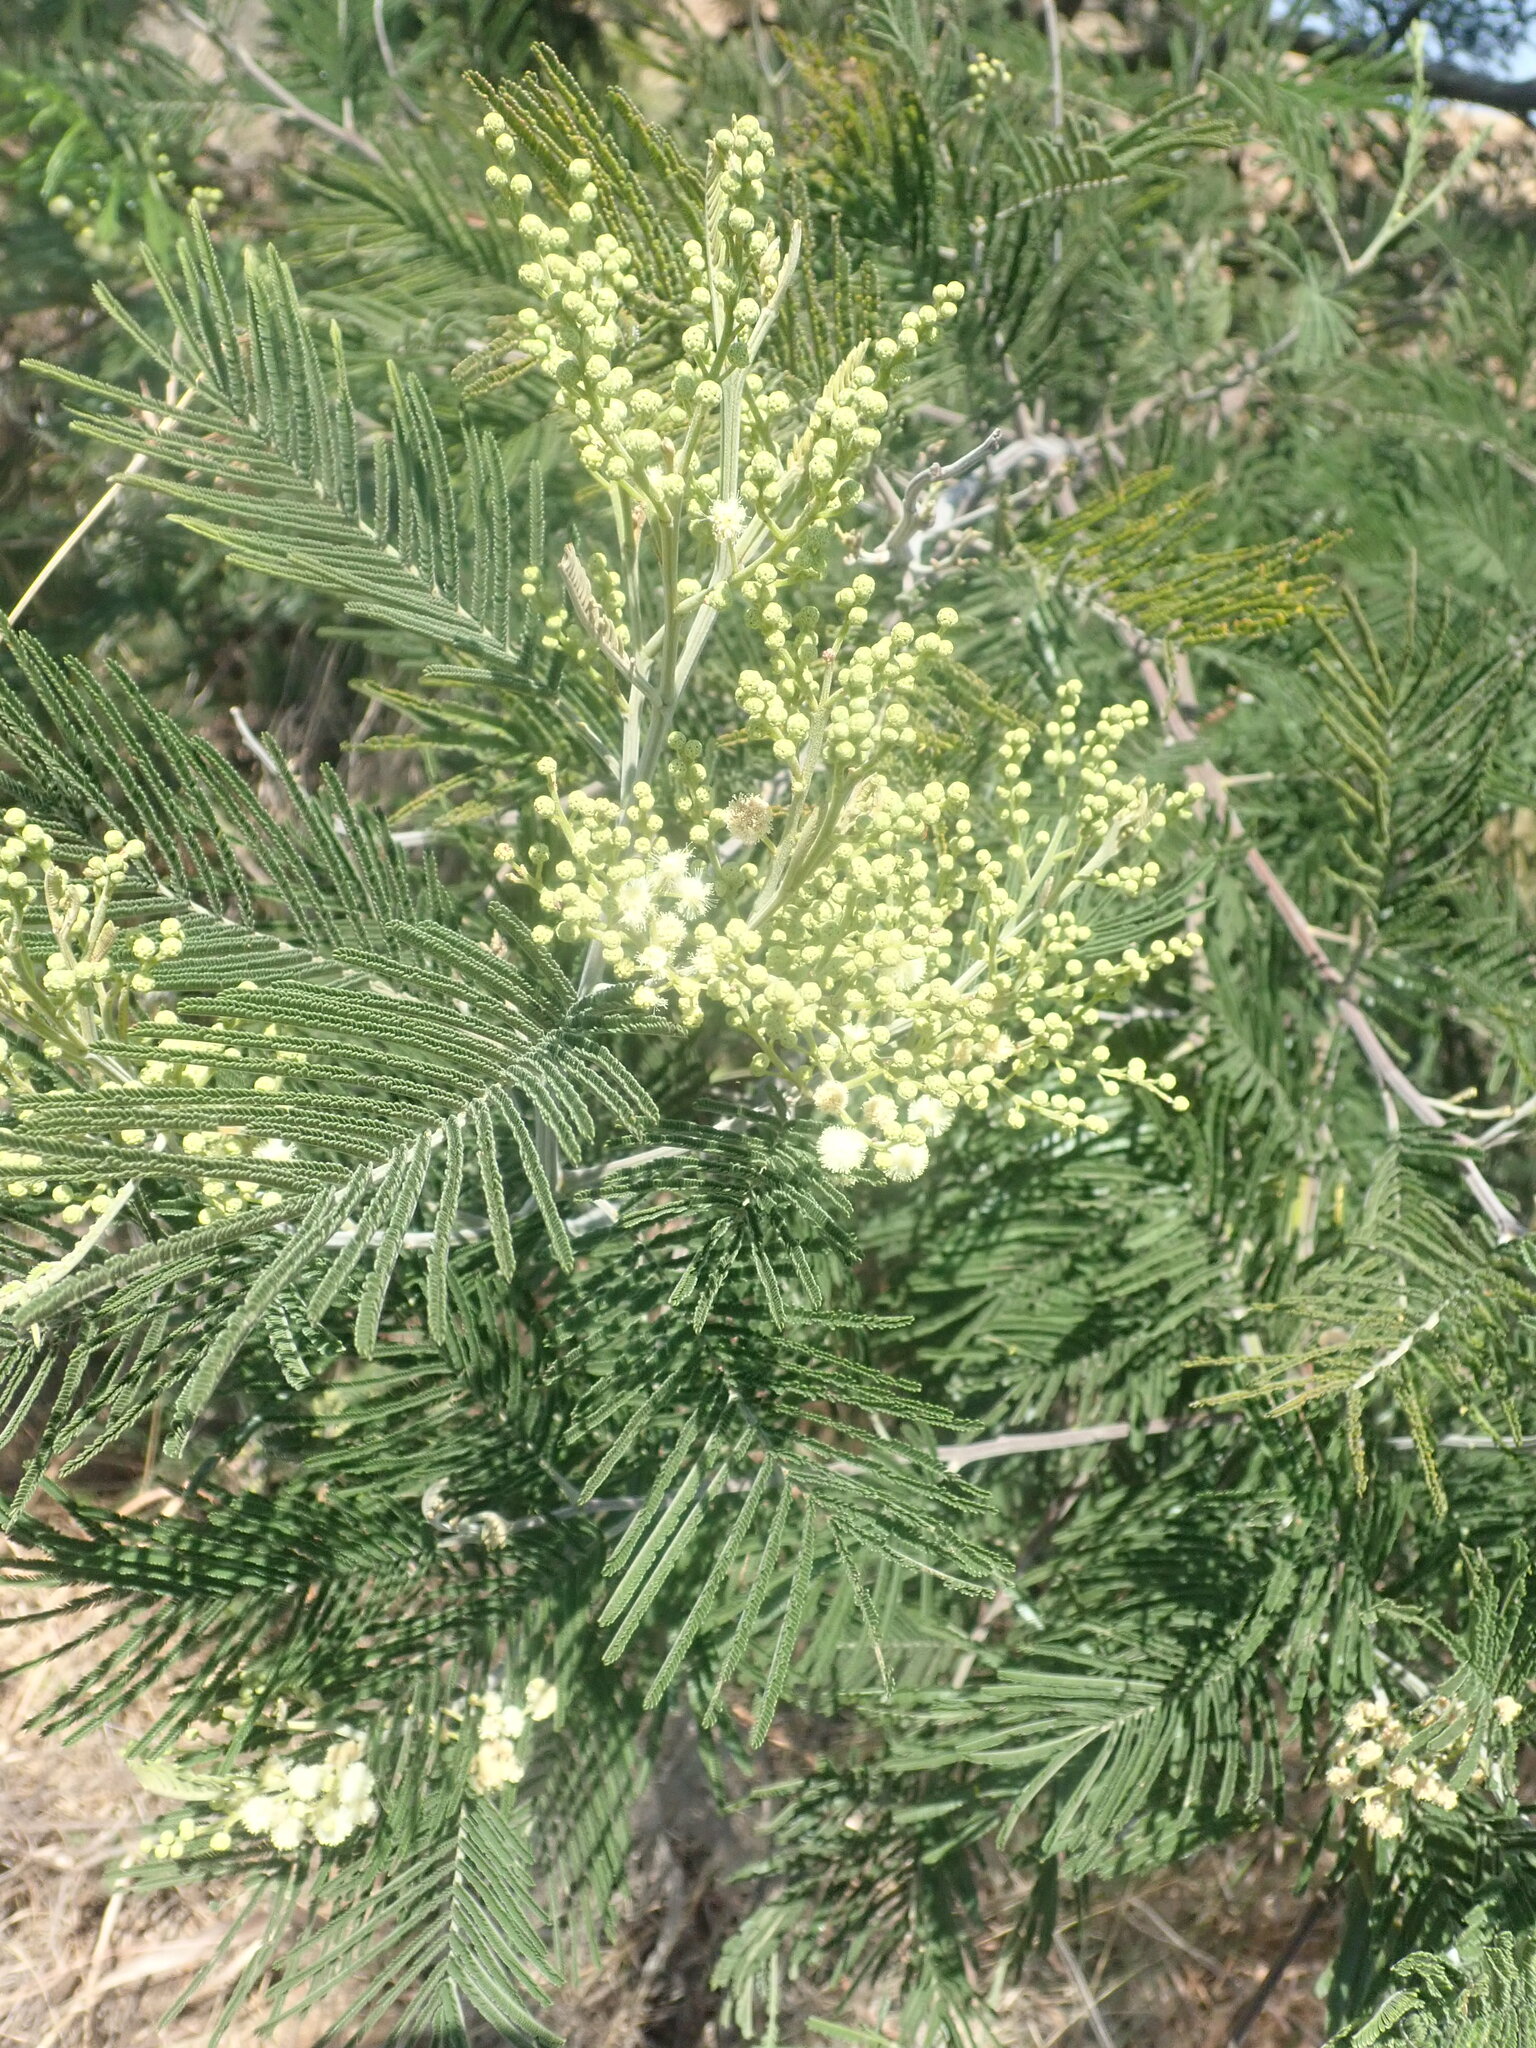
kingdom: Plantae
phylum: Tracheophyta
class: Magnoliopsida
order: Fabales
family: Fabaceae
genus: Acacia
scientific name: Acacia mearnsii
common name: Black wattle
